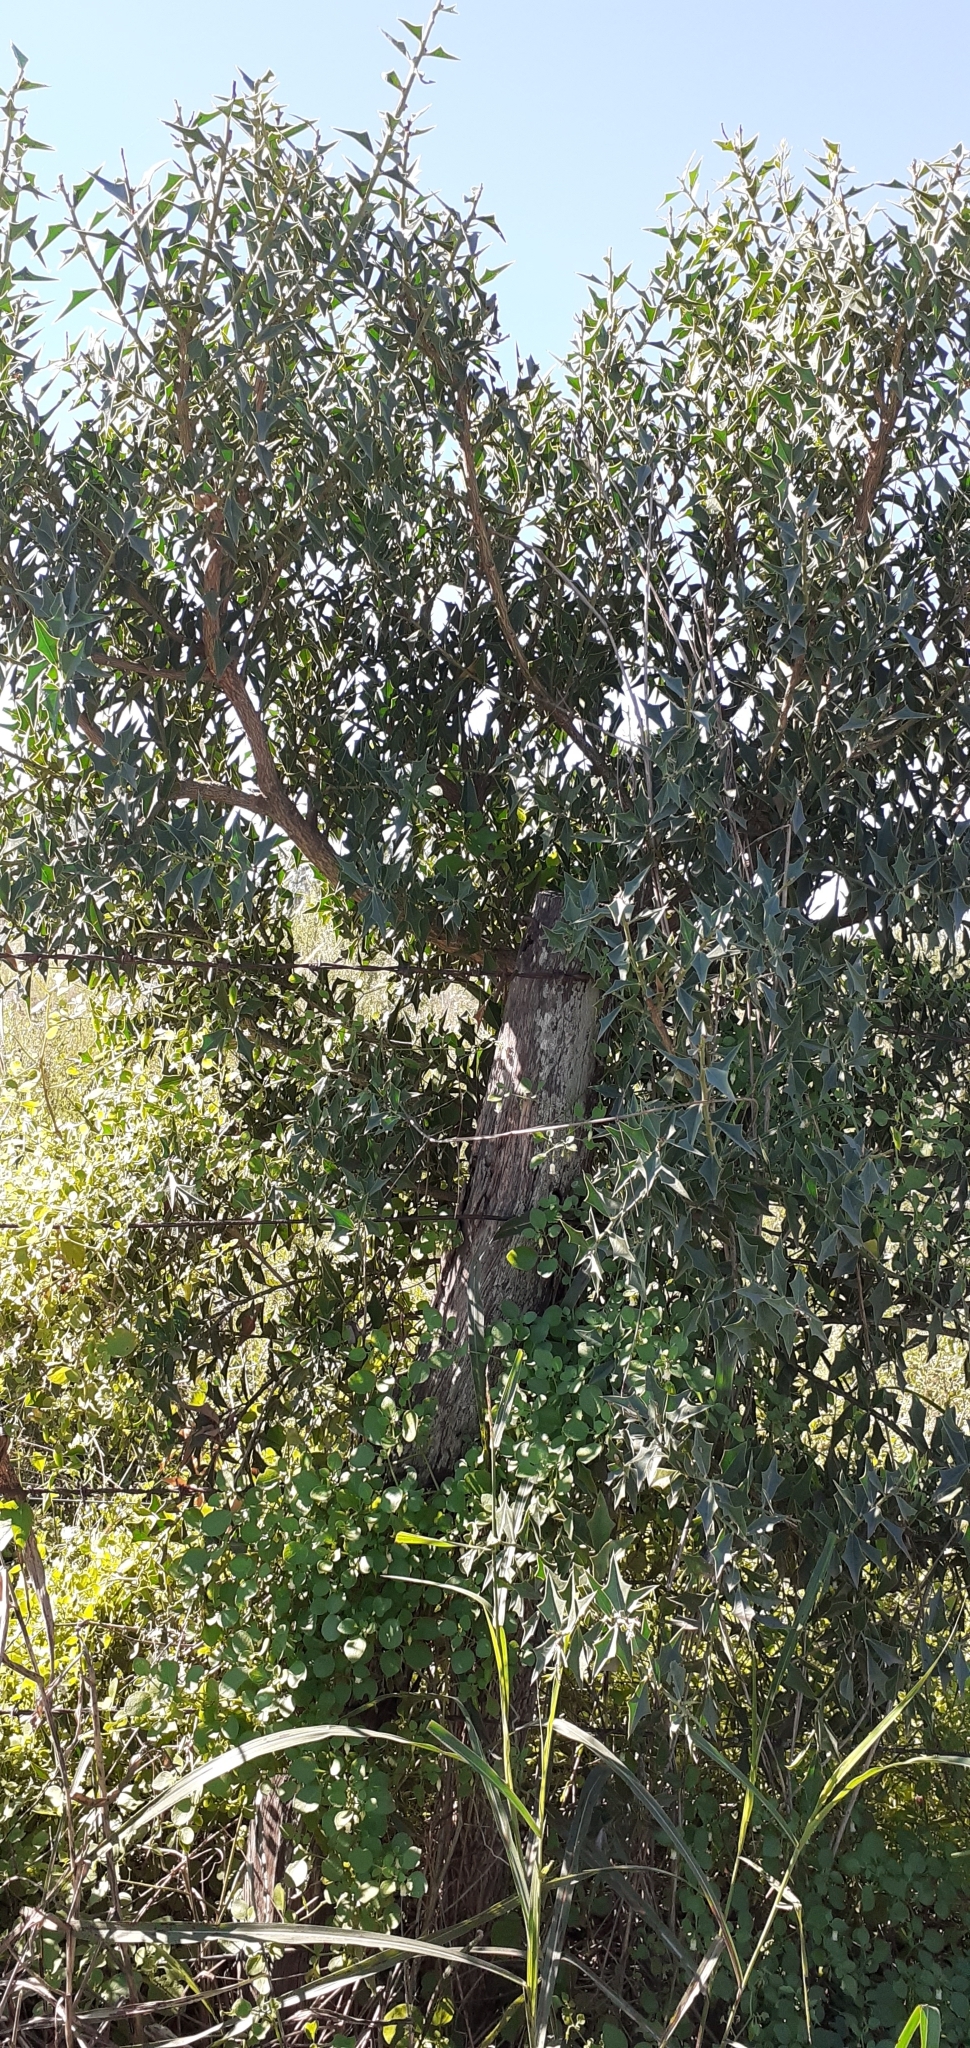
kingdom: Plantae
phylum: Tracheophyta
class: Magnoliopsida
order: Santalales
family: Cervantesiaceae
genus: Jodina
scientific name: Jodina rhombifolia
